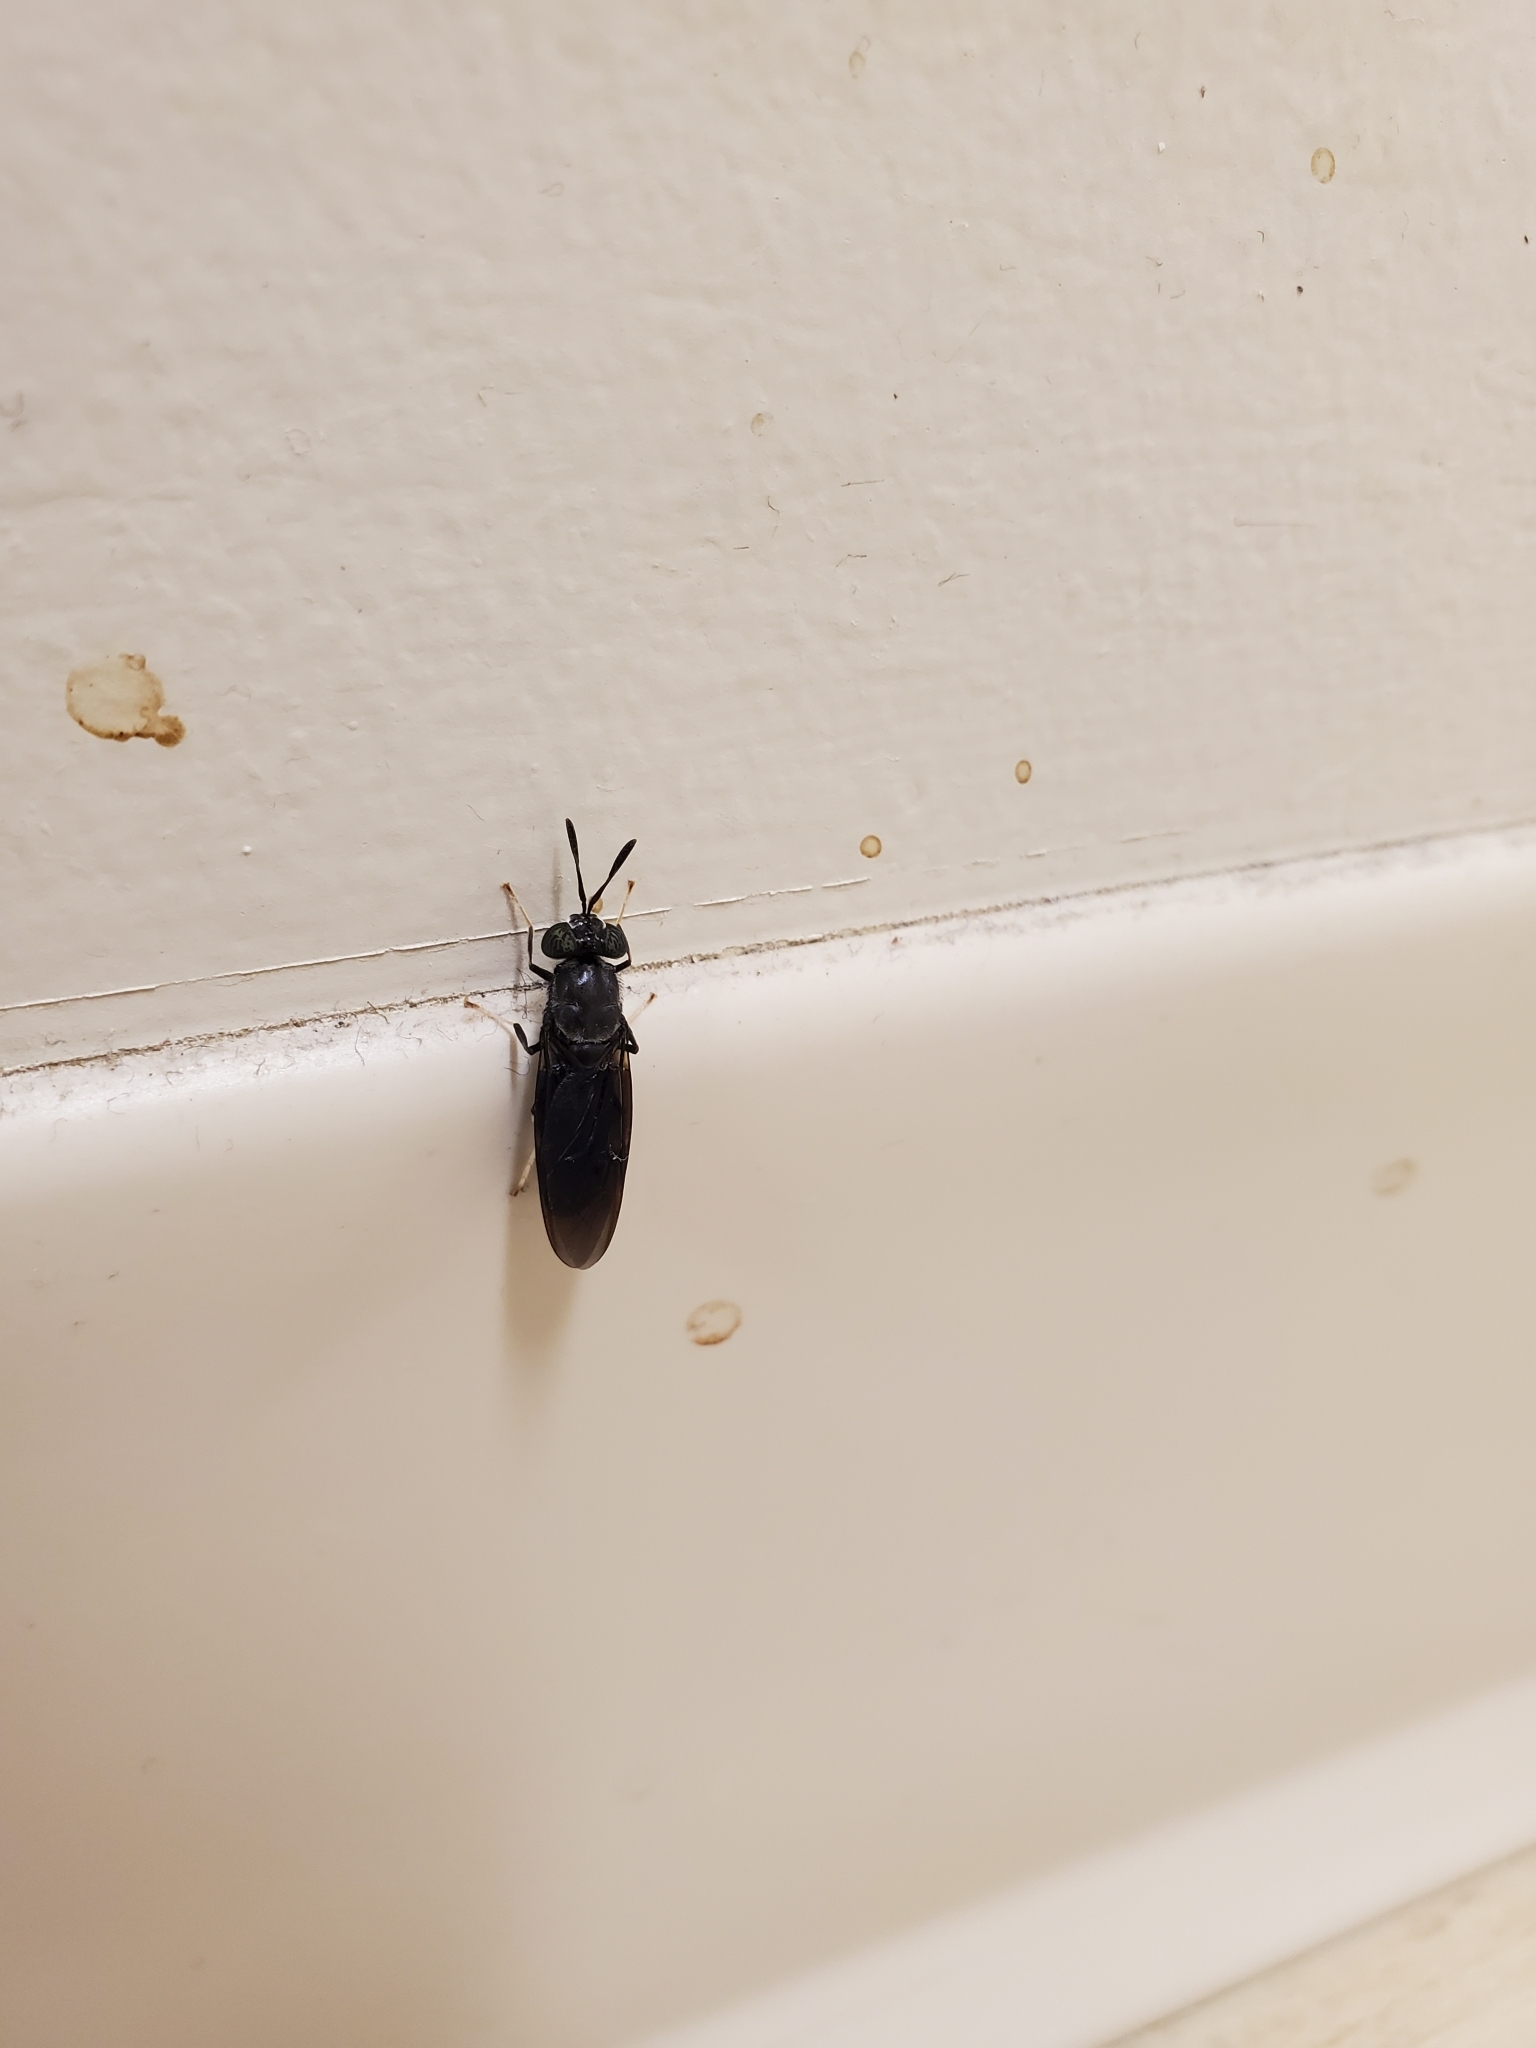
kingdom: Animalia
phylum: Arthropoda
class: Insecta
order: Diptera
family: Stratiomyidae
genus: Hermetia
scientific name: Hermetia illucens
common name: Black soldier fly
